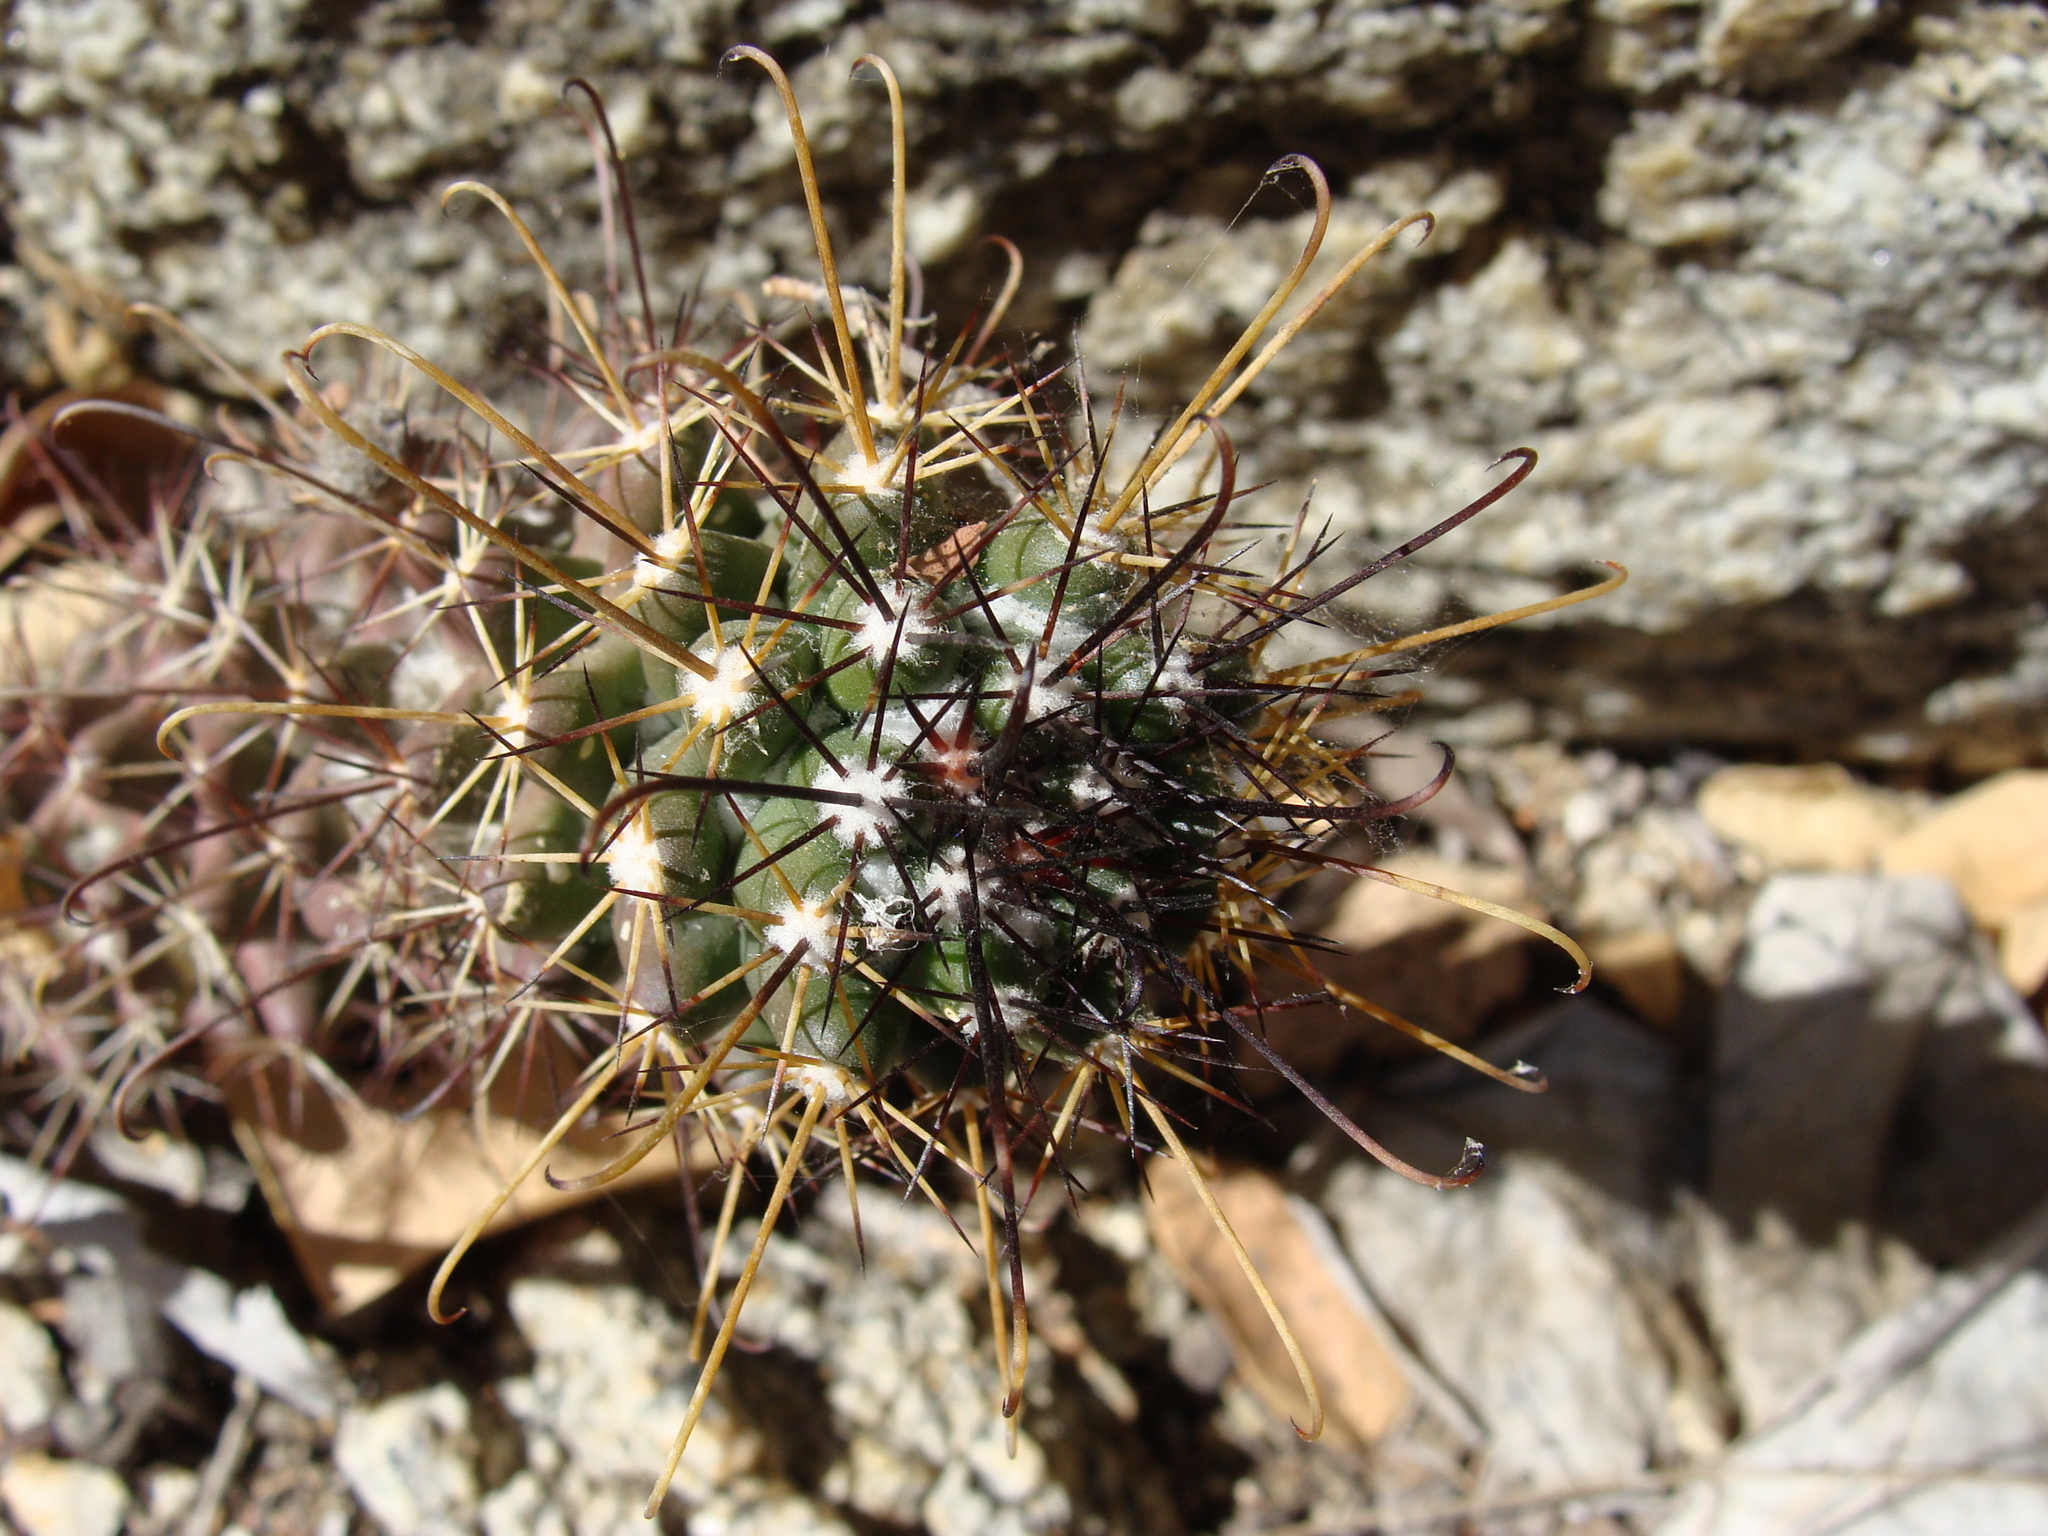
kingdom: Plantae
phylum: Tracheophyta
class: Magnoliopsida
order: Caryophyllales
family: Cactaceae
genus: Cochemiea
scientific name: Cochemiea poselgeri
